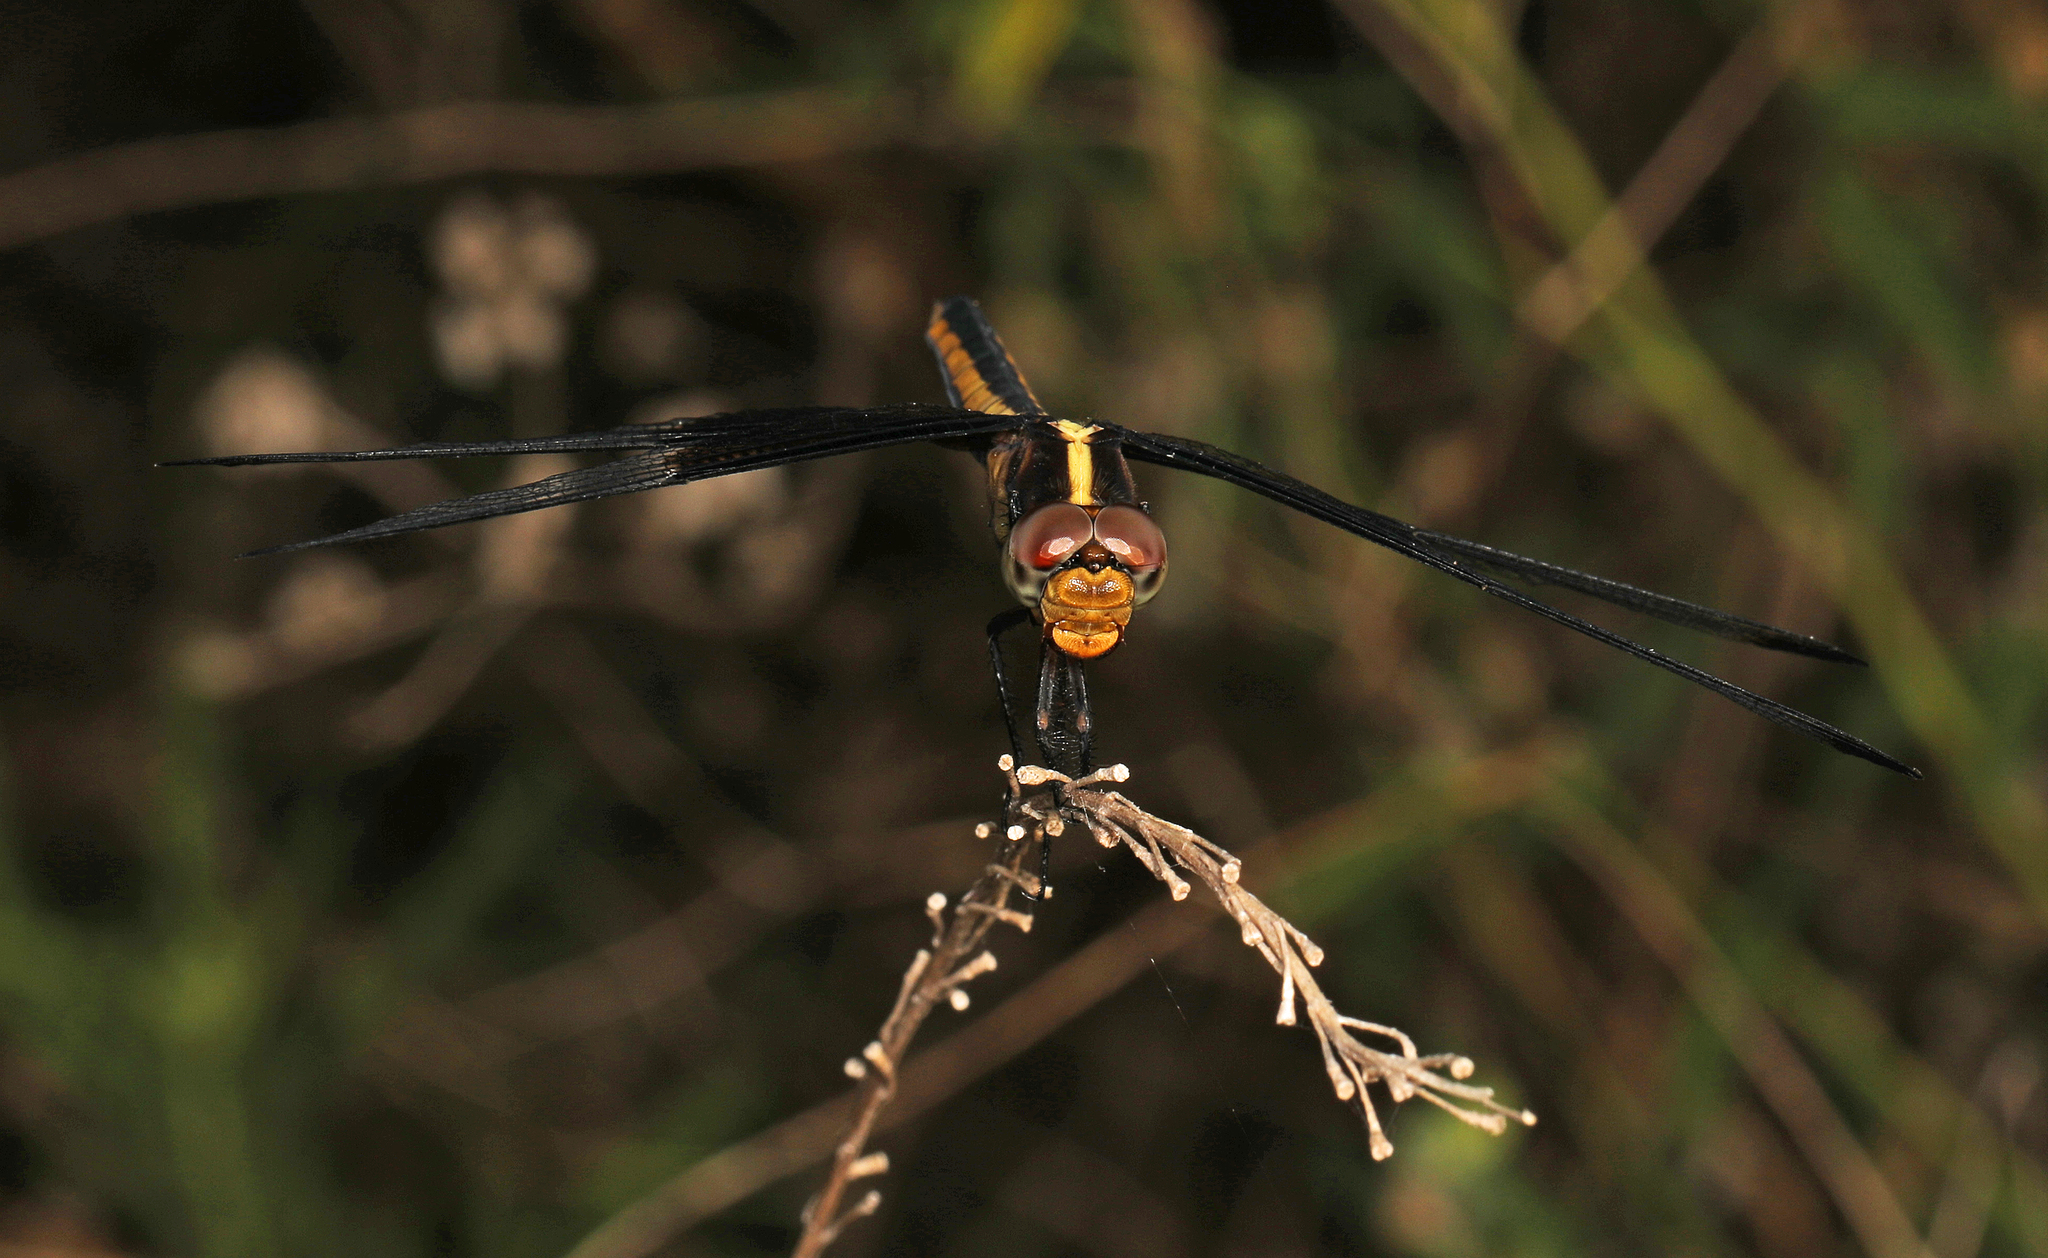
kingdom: Animalia
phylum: Arthropoda
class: Insecta
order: Odonata
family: Libellulidae
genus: Libellula
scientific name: Libellula luctuosa
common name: Widow skimmer
